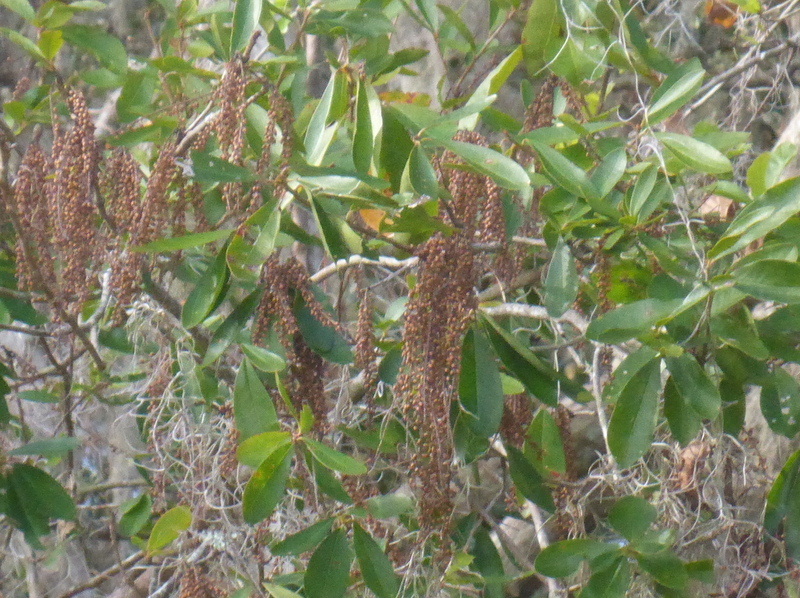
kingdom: Plantae
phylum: Tracheophyta
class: Magnoliopsida
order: Ericales
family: Cyrillaceae
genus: Cyrilla
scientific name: Cyrilla racemiflora
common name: Black titi
